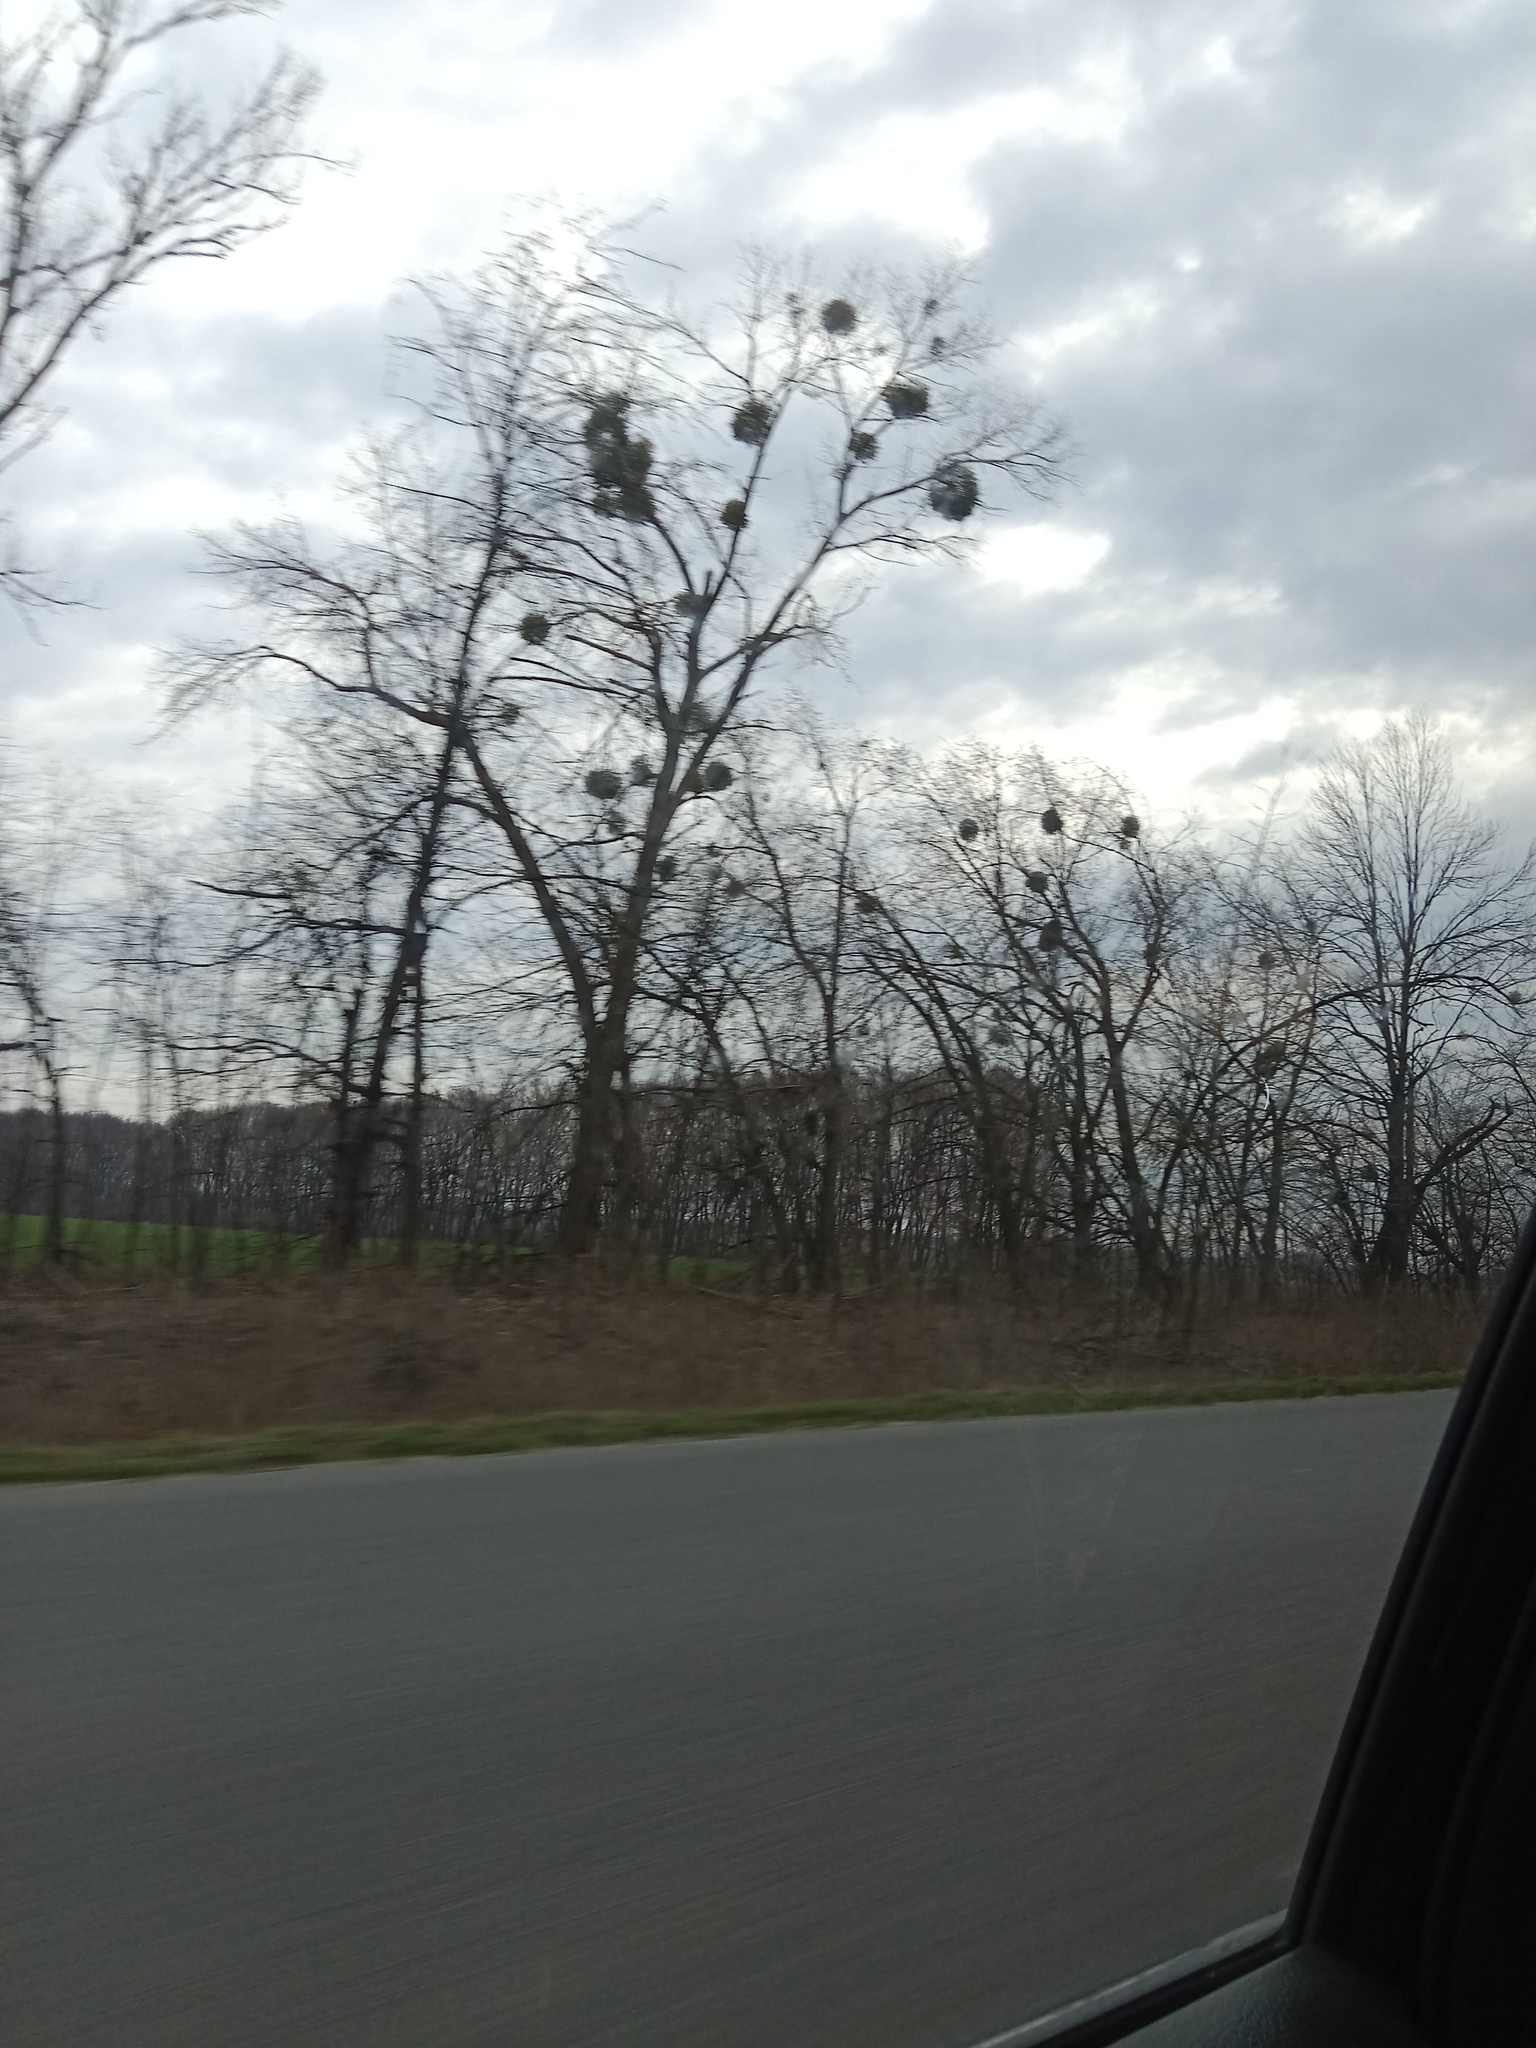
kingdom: Plantae
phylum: Tracheophyta
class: Magnoliopsida
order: Santalales
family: Viscaceae
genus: Viscum
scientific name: Viscum album
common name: Mistletoe
